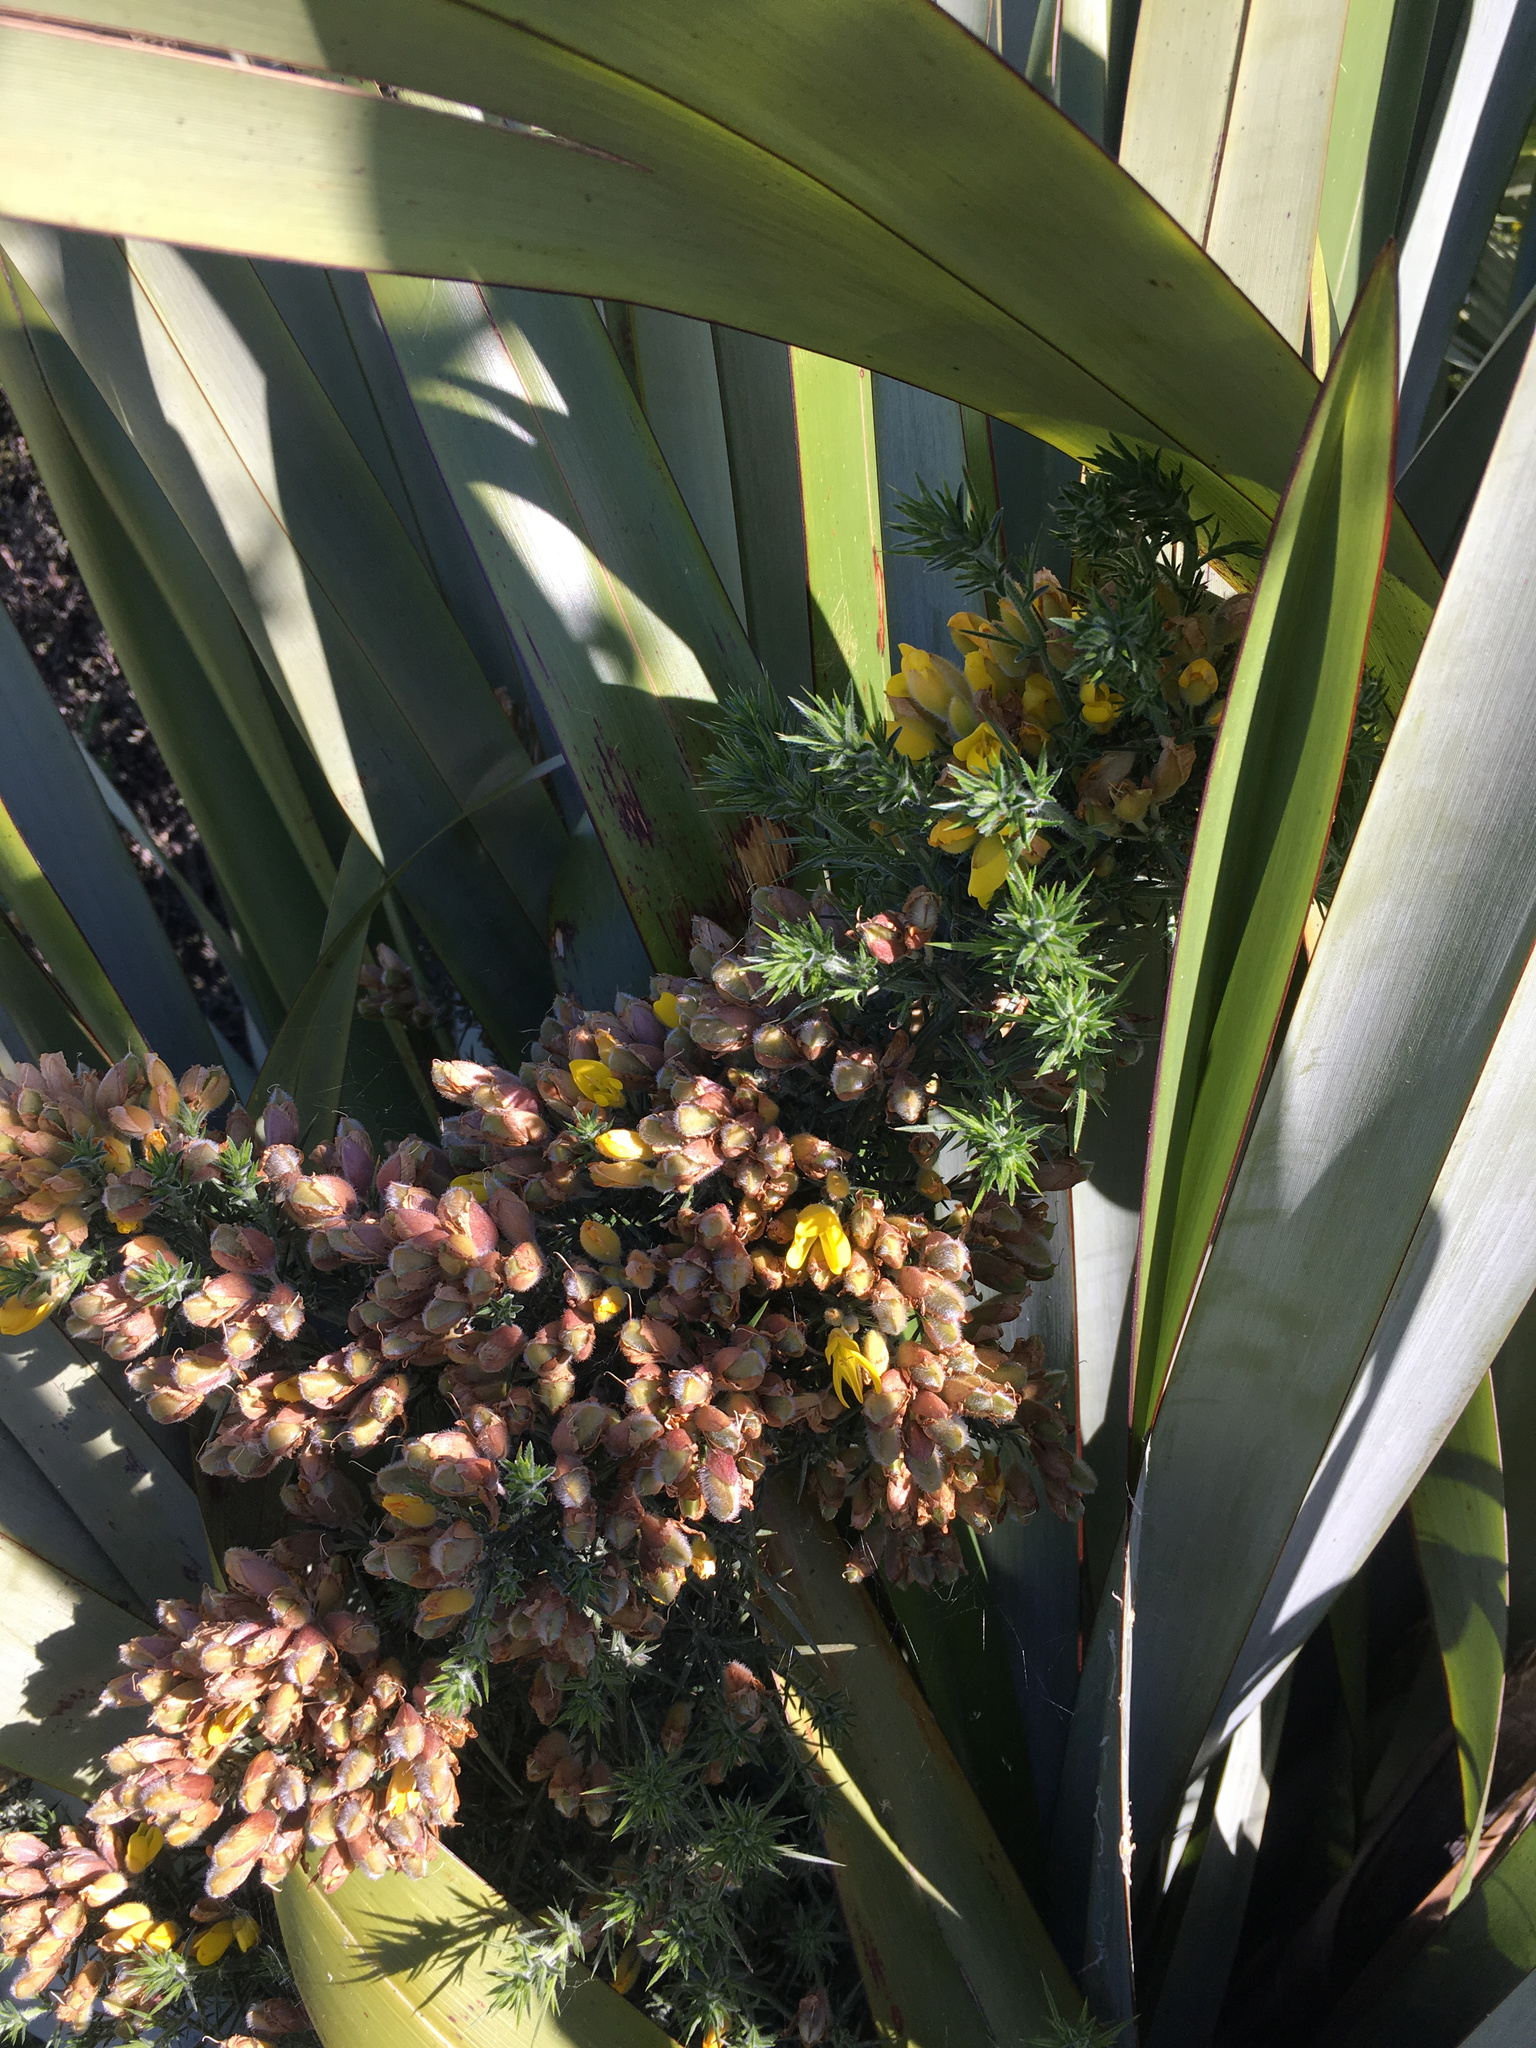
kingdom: Plantae
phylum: Tracheophyta
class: Magnoliopsida
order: Fabales
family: Fabaceae
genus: Ulex
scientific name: Ulex europaeus
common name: Common gorse
